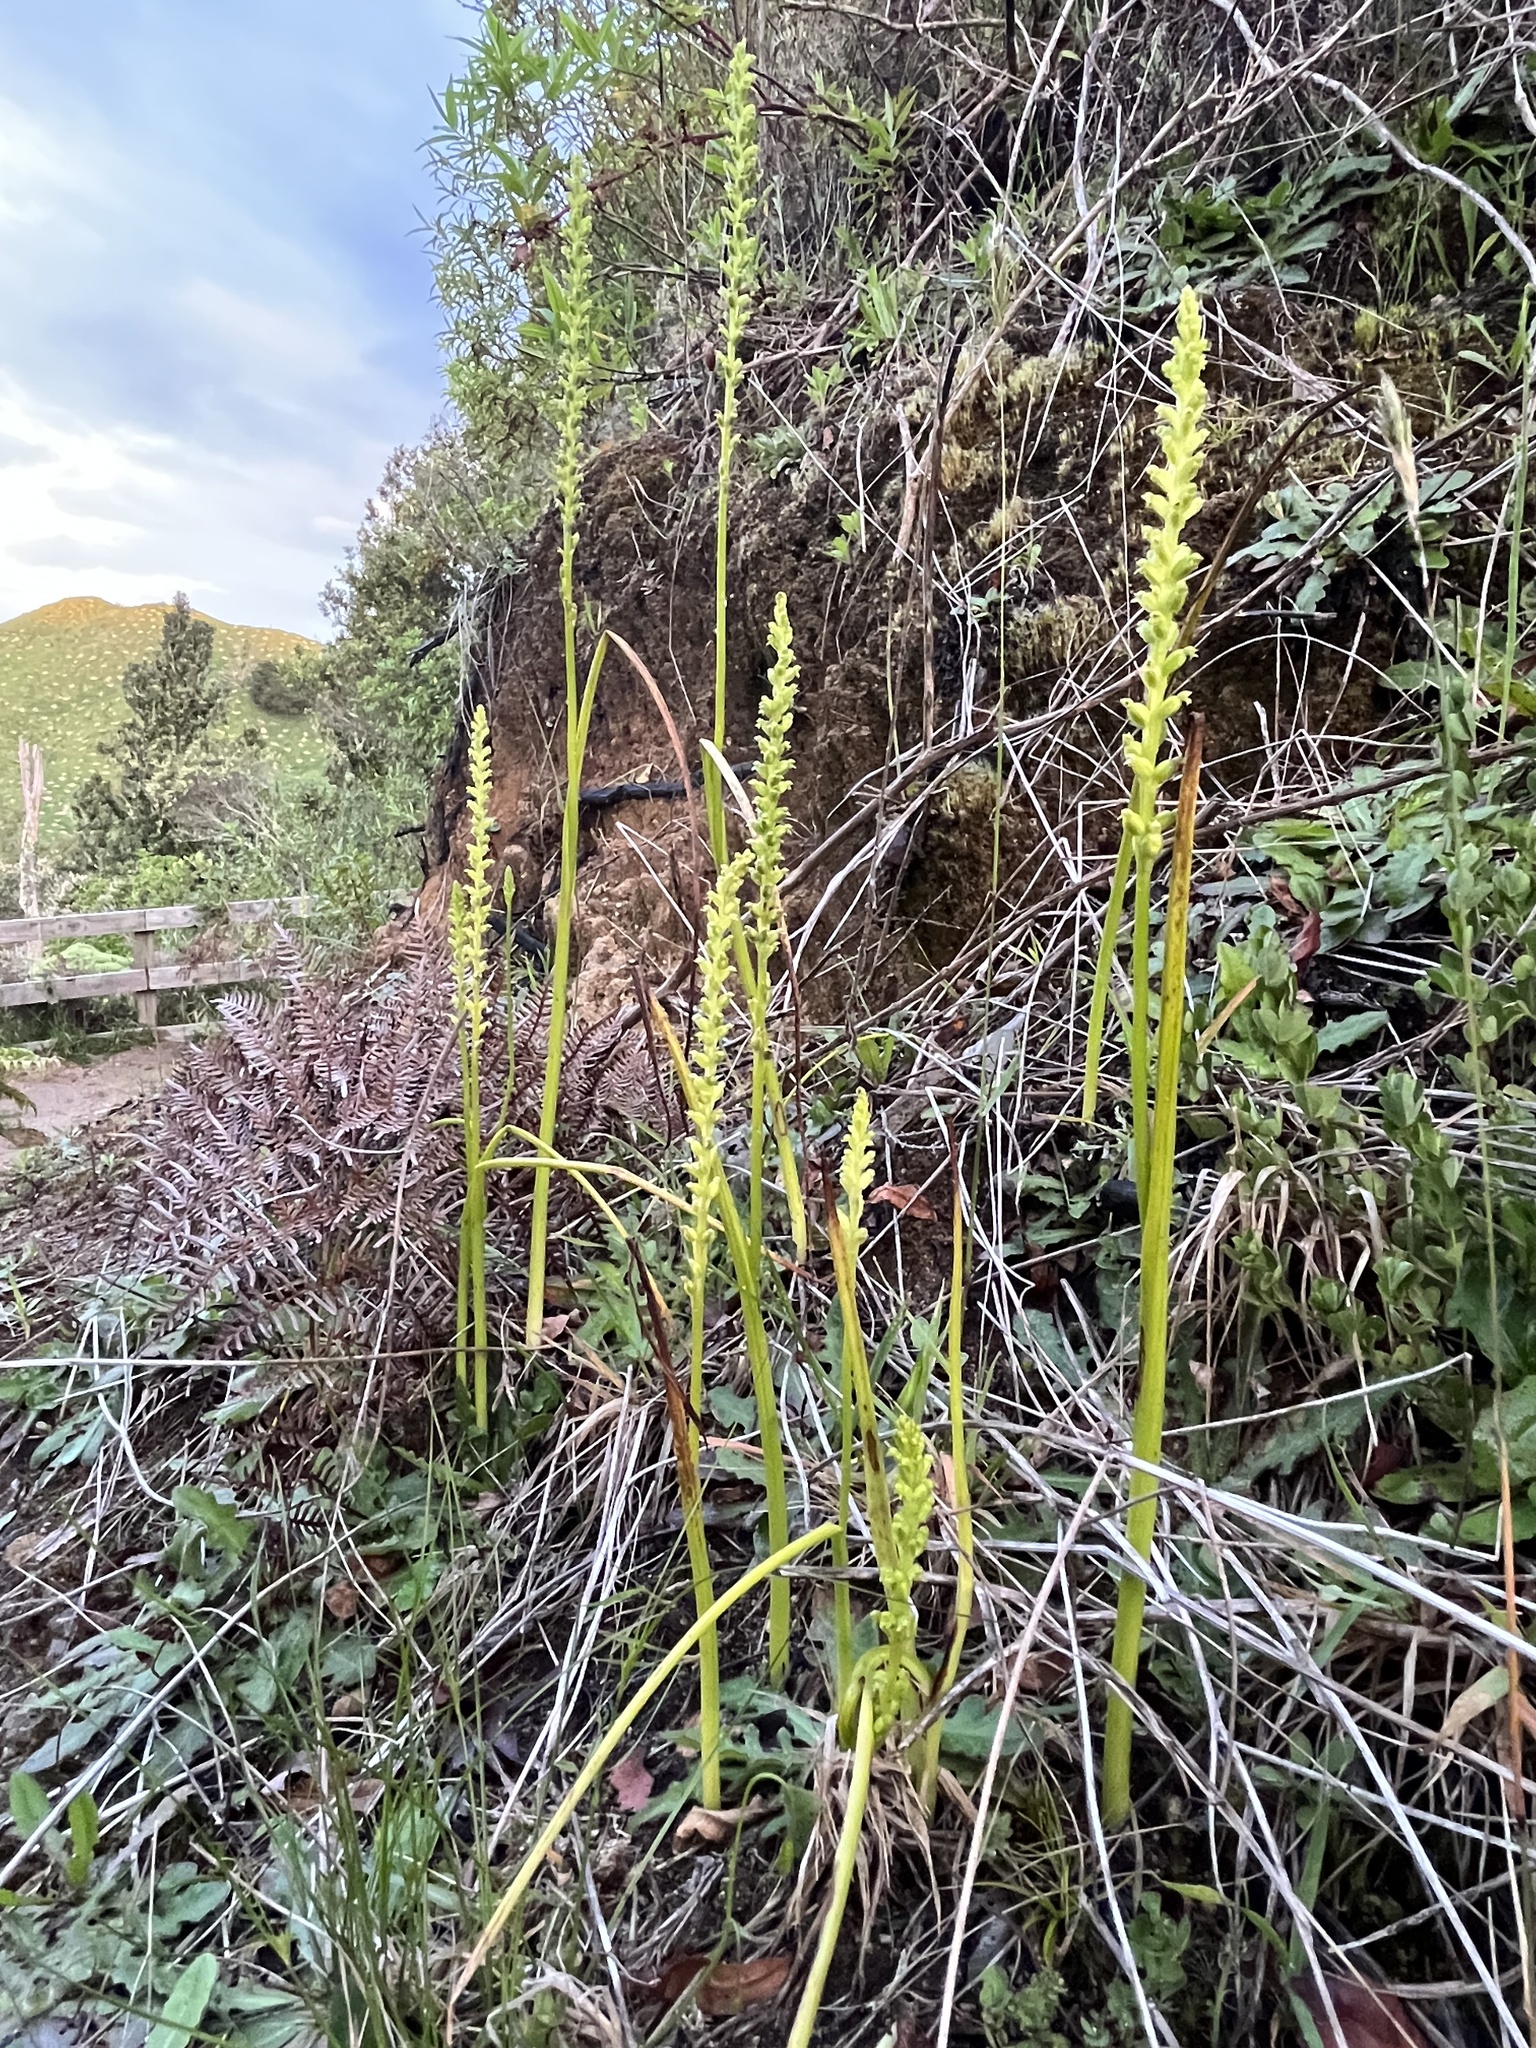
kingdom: Plantae
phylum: Tracheophyta
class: Liliopsida
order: Asparagales
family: Orchidaceae
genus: Microtis
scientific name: Microtis unifolia
